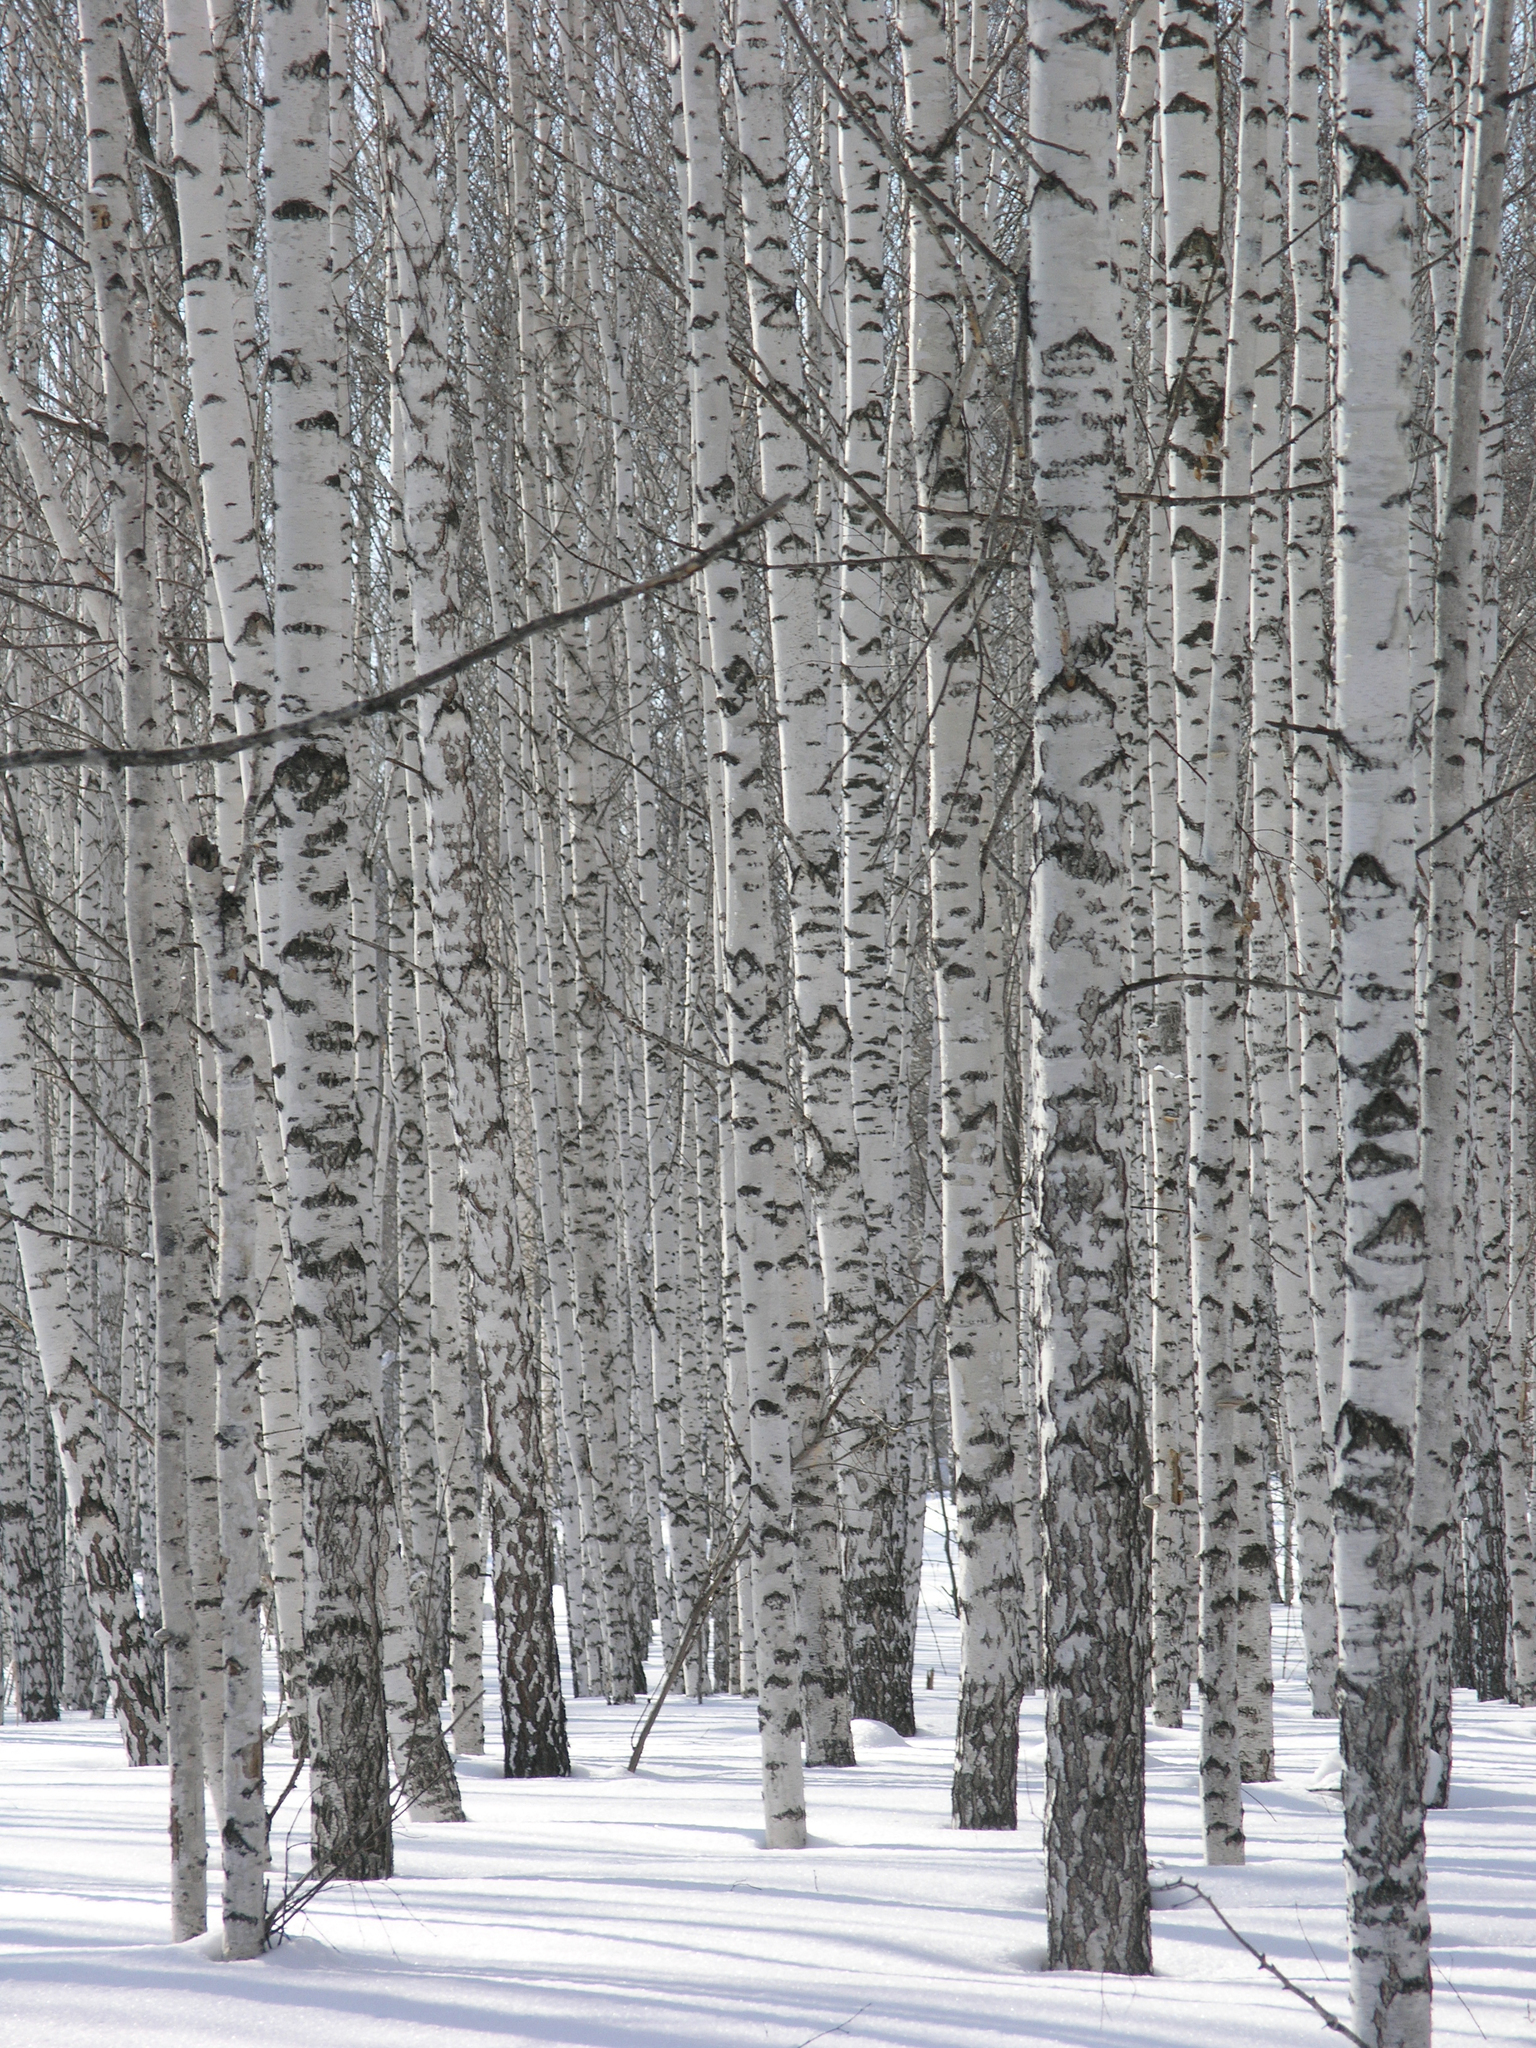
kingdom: Plantae
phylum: Tracheophyta
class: Magnoliopsida
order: Fagales
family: Betulaceae
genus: Betula
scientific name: Betula pendula
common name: Silver birch
